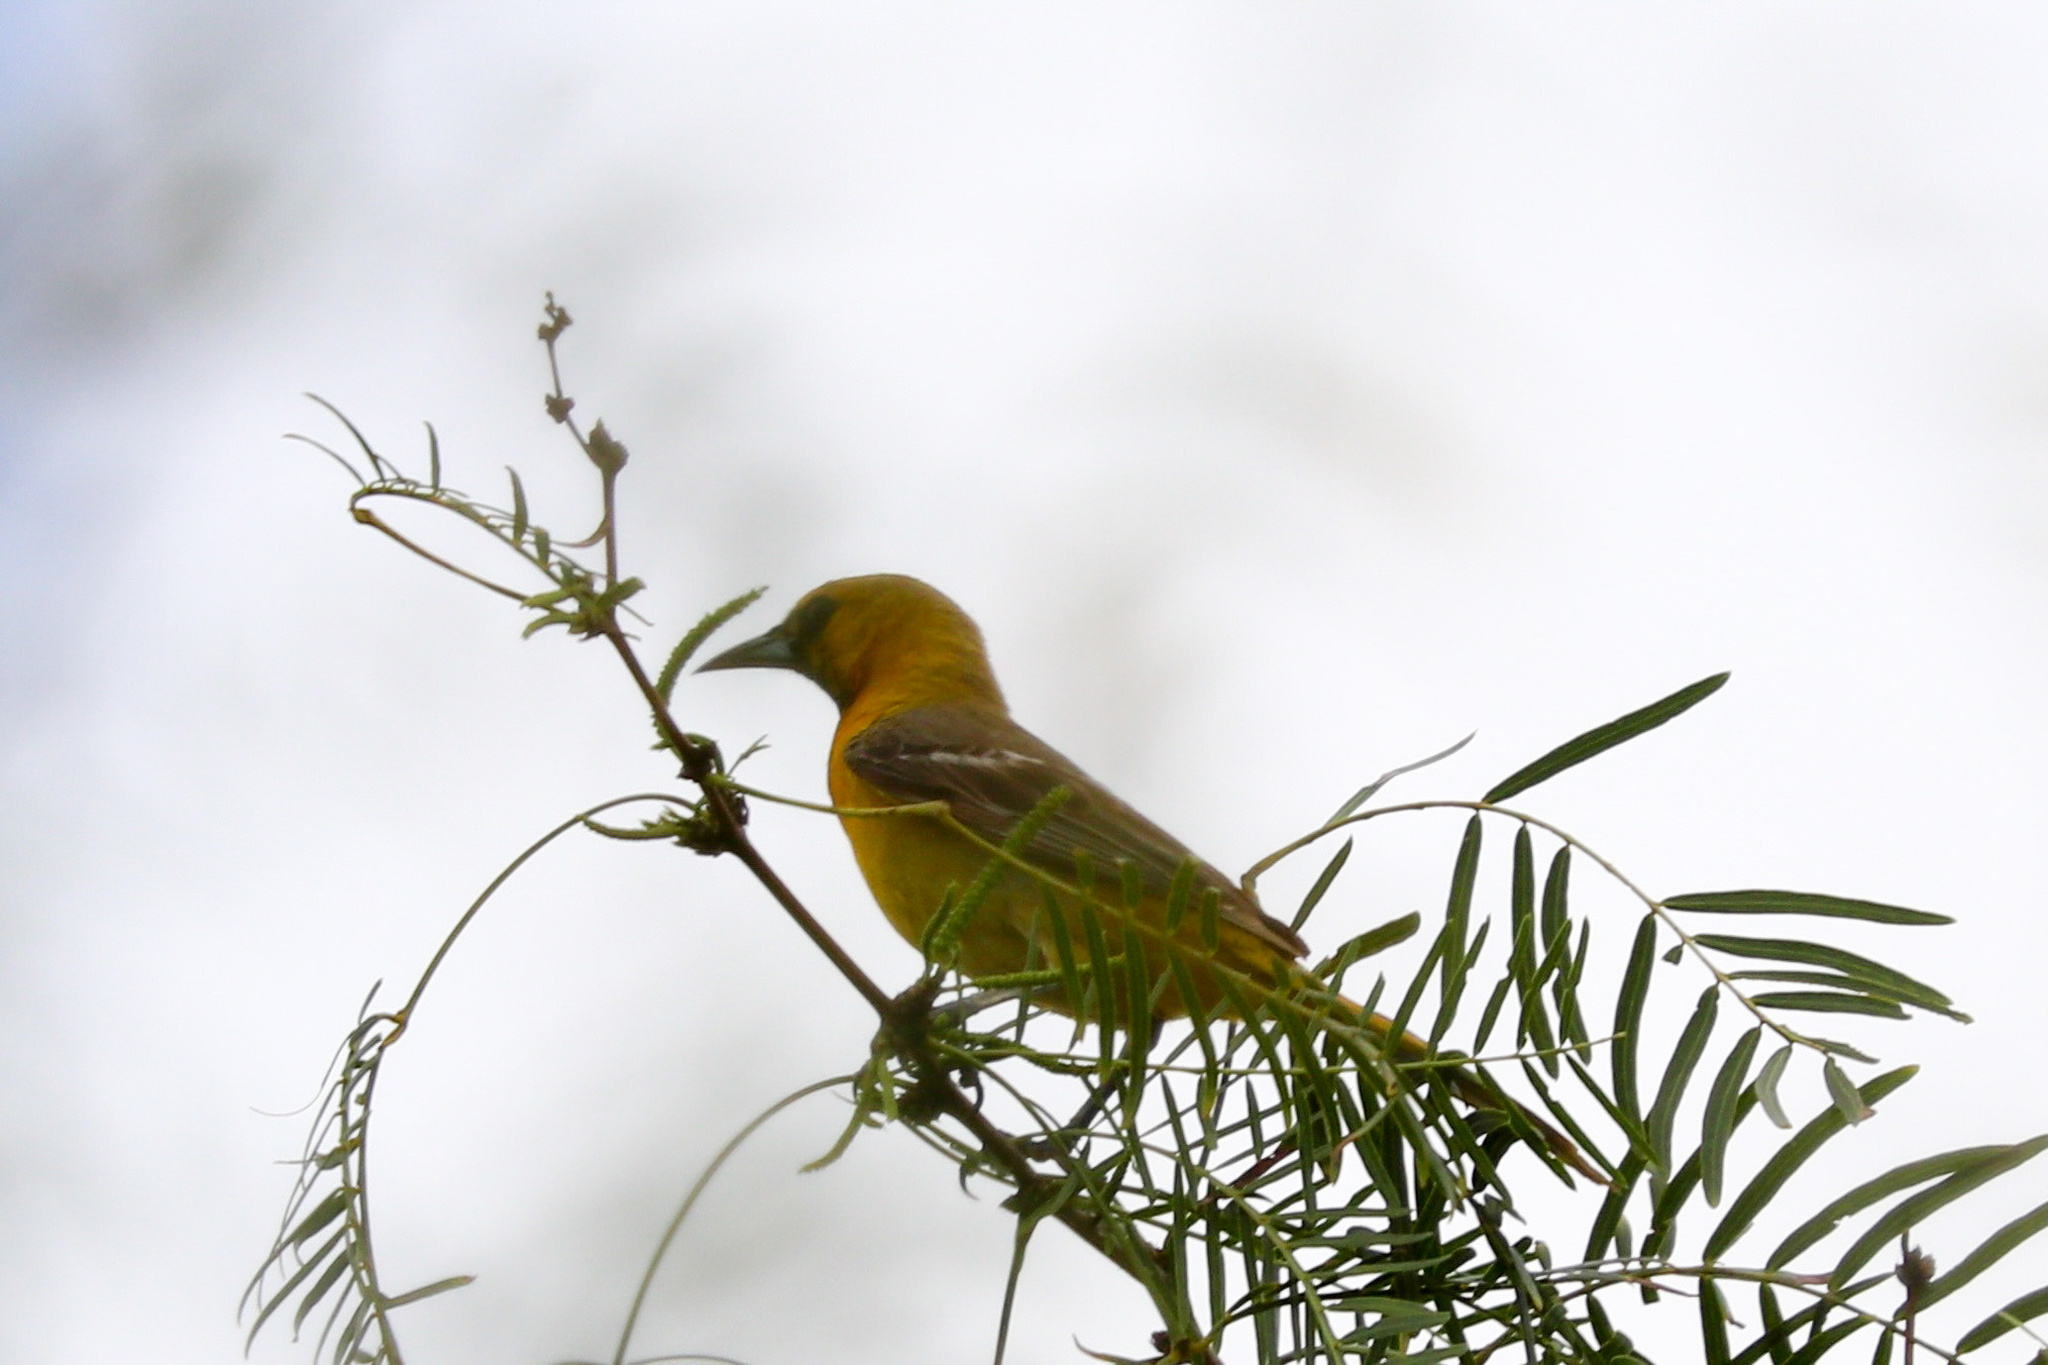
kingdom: Animalia
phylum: Chordata
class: Aves
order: Passeriformes
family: Icteridae
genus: Icterus
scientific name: Icterus cucullatus
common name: Hooded oriole
